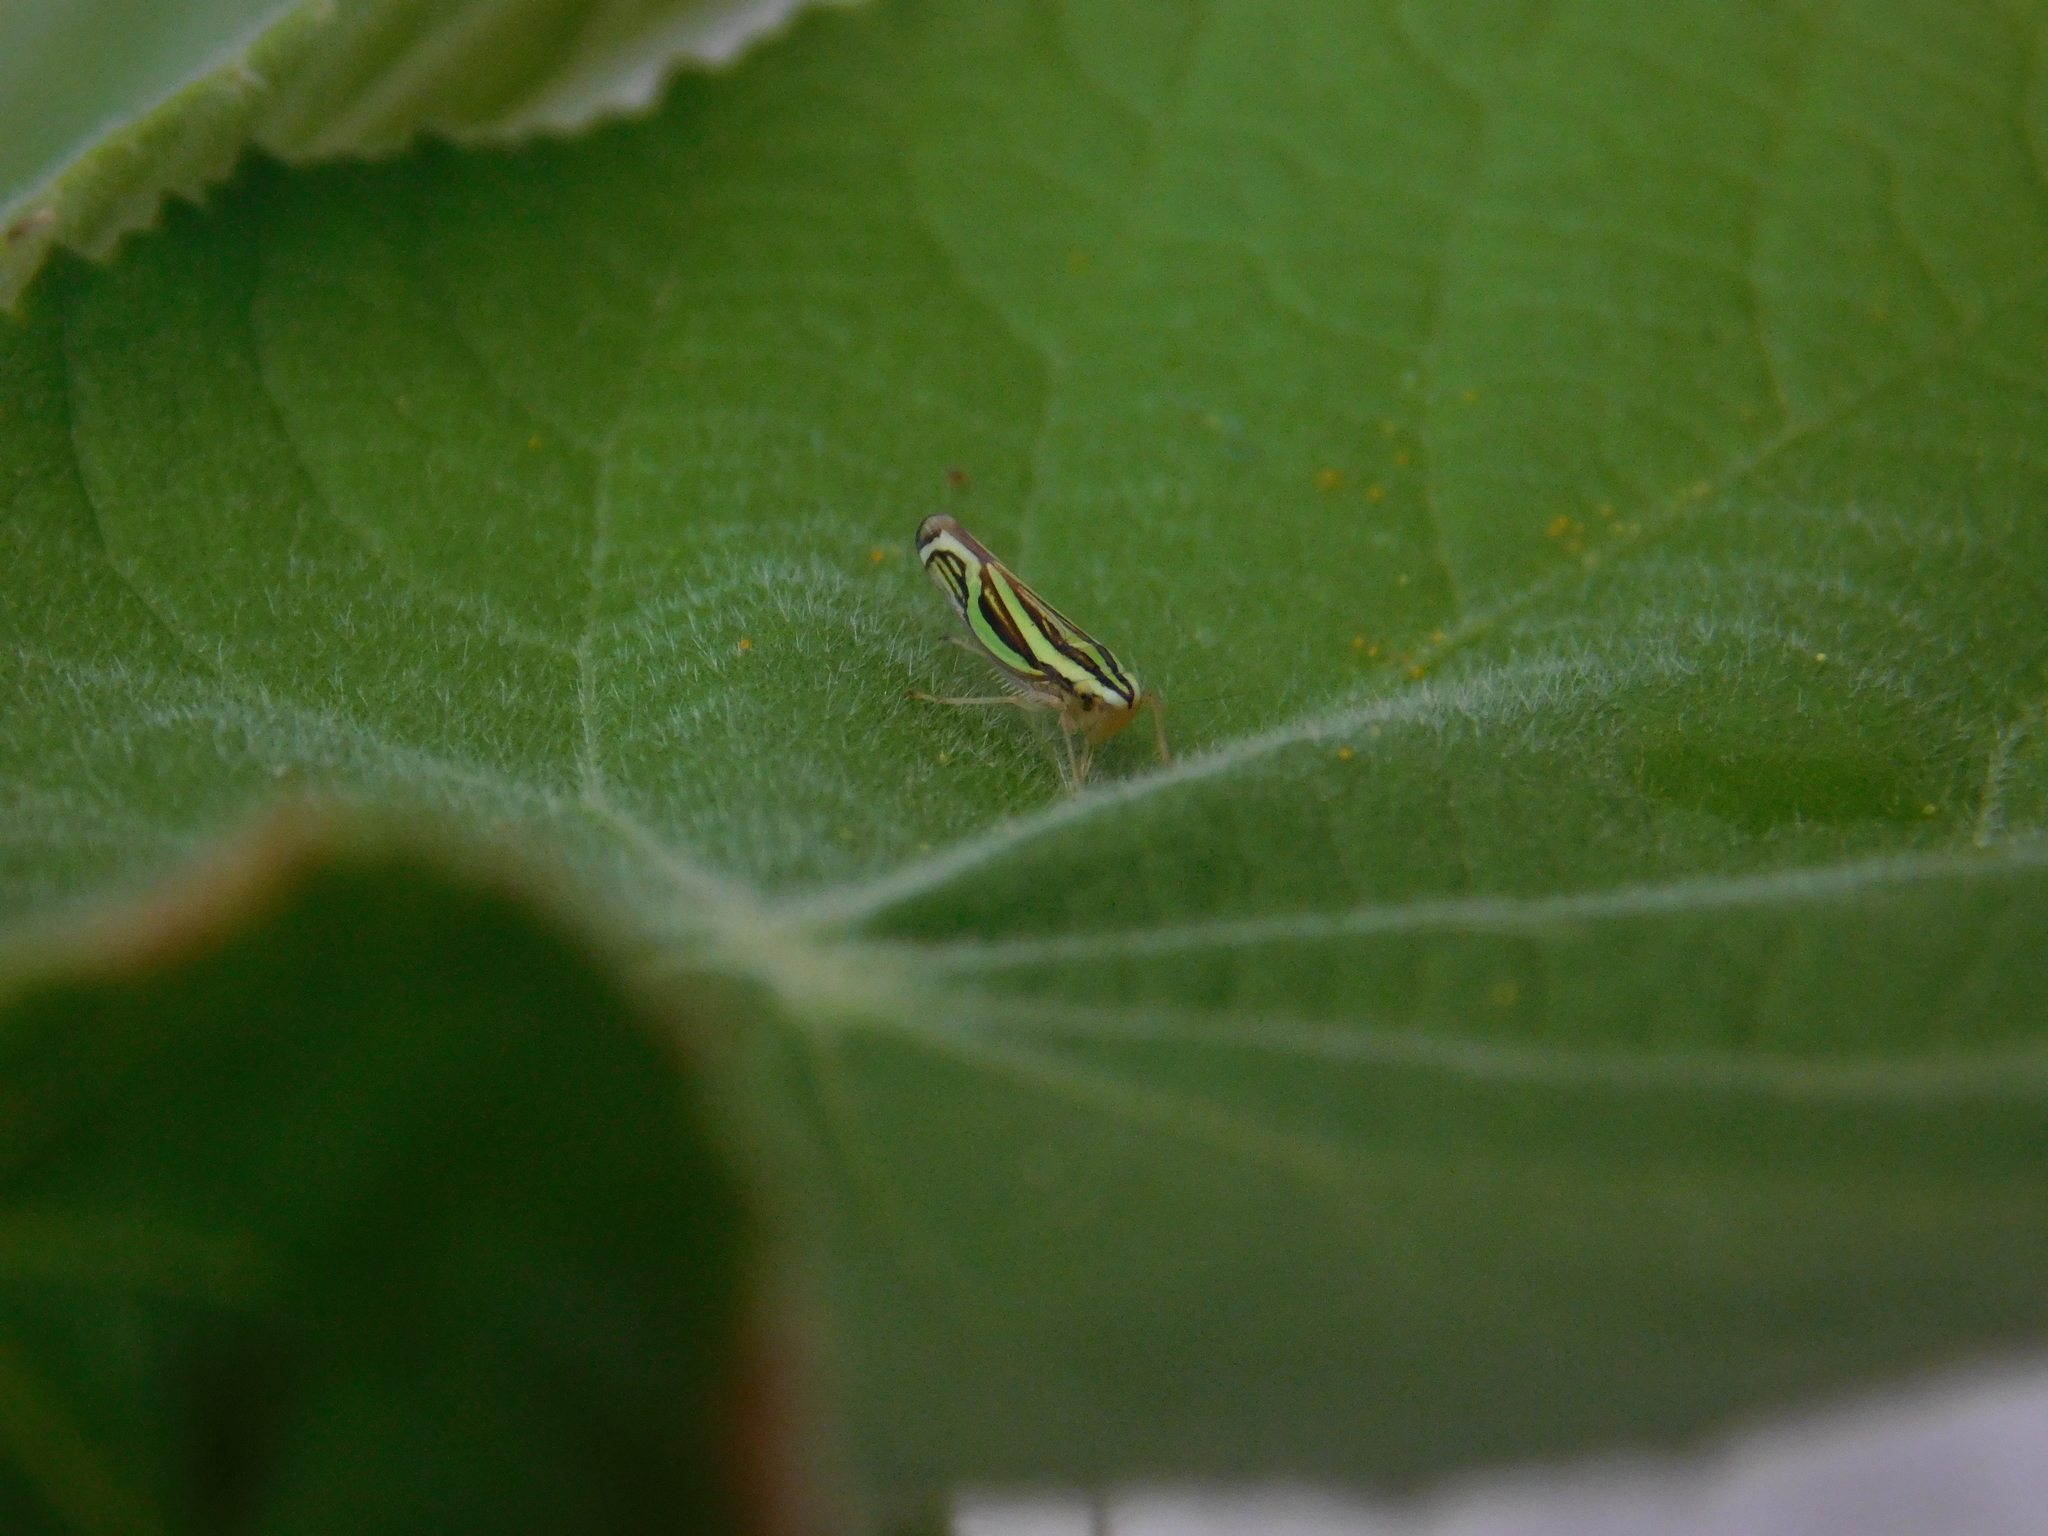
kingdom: Animalia
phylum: Arthropoda
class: Insecta
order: Hemiptera
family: Cicadellidae
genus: Sibovia
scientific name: Sibovia sagata
